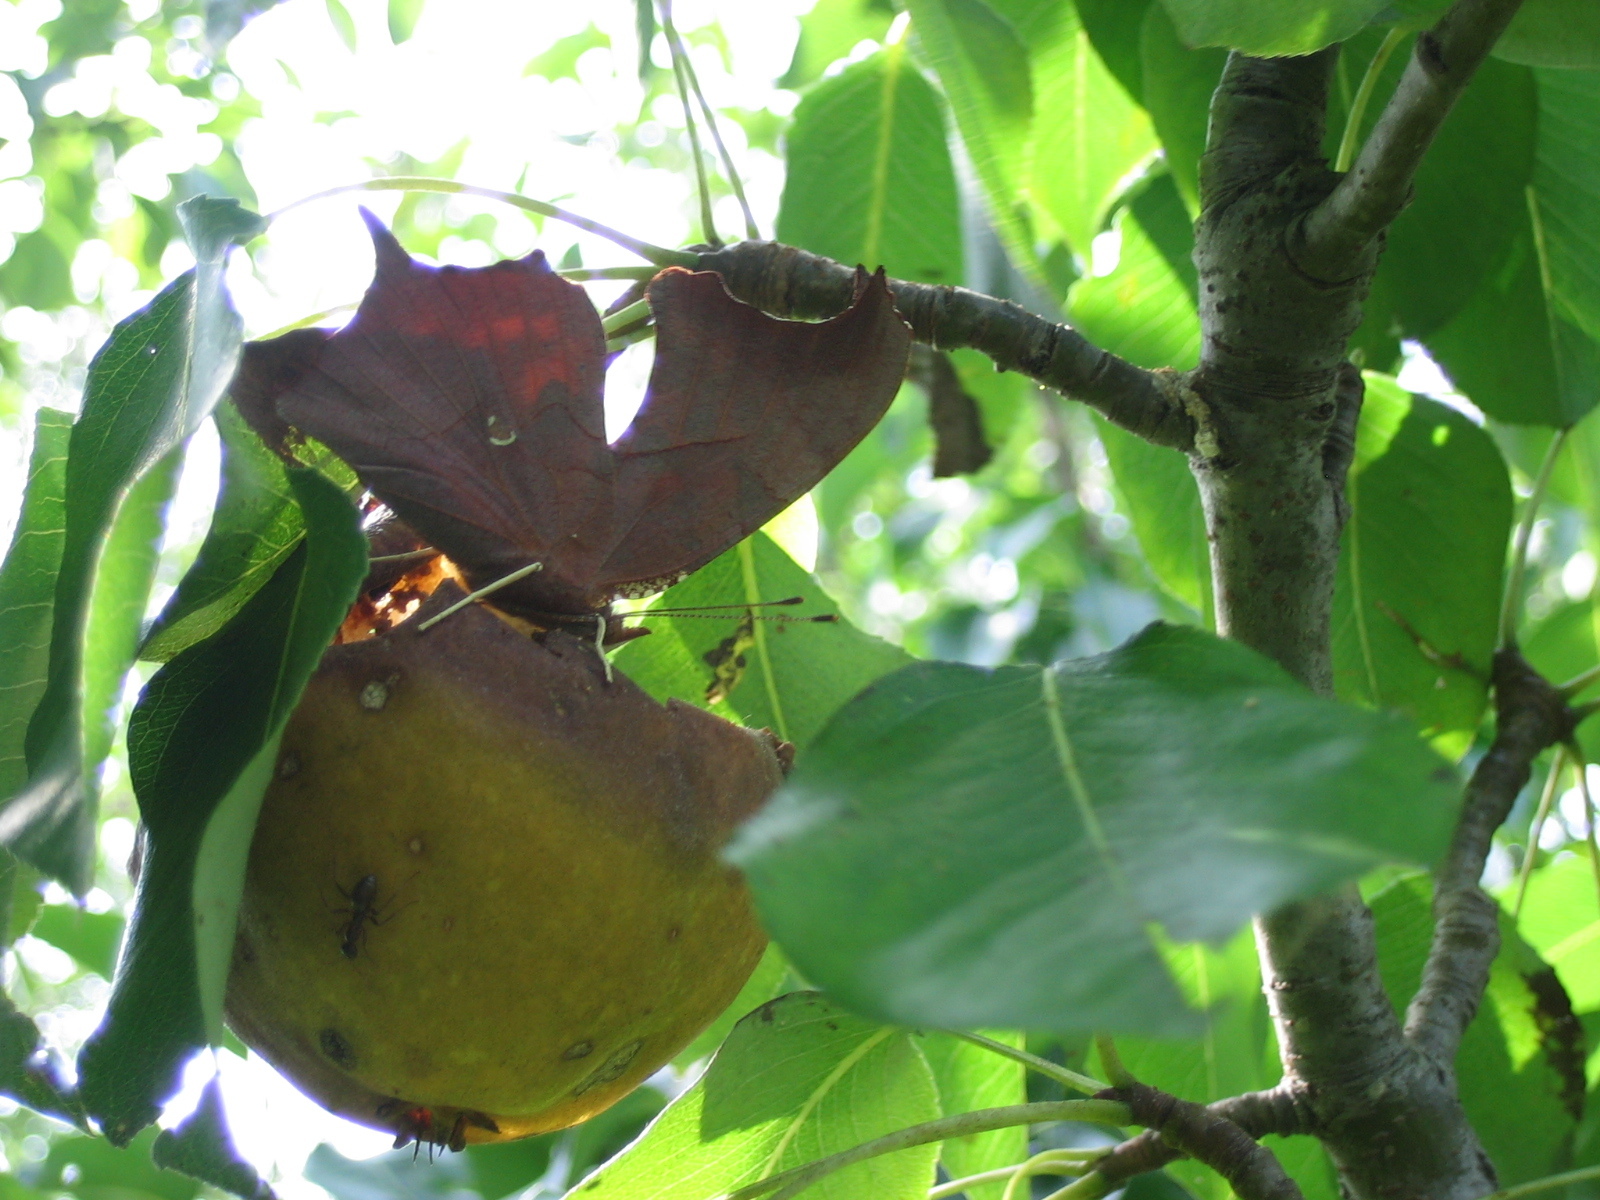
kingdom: Animalia
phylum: Arthropoda
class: Insecta
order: Lepidoptera
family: Nymphalidae
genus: Polygonia
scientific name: Polygonia interrogationis
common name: Question mark
